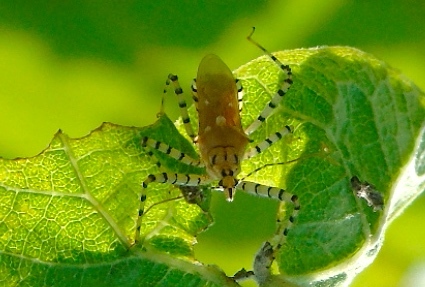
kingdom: Animalia
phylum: Arthropoda
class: Insecta
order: Hemiptera
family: Reduviidae
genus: Pselliopus
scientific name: Pselliopus
